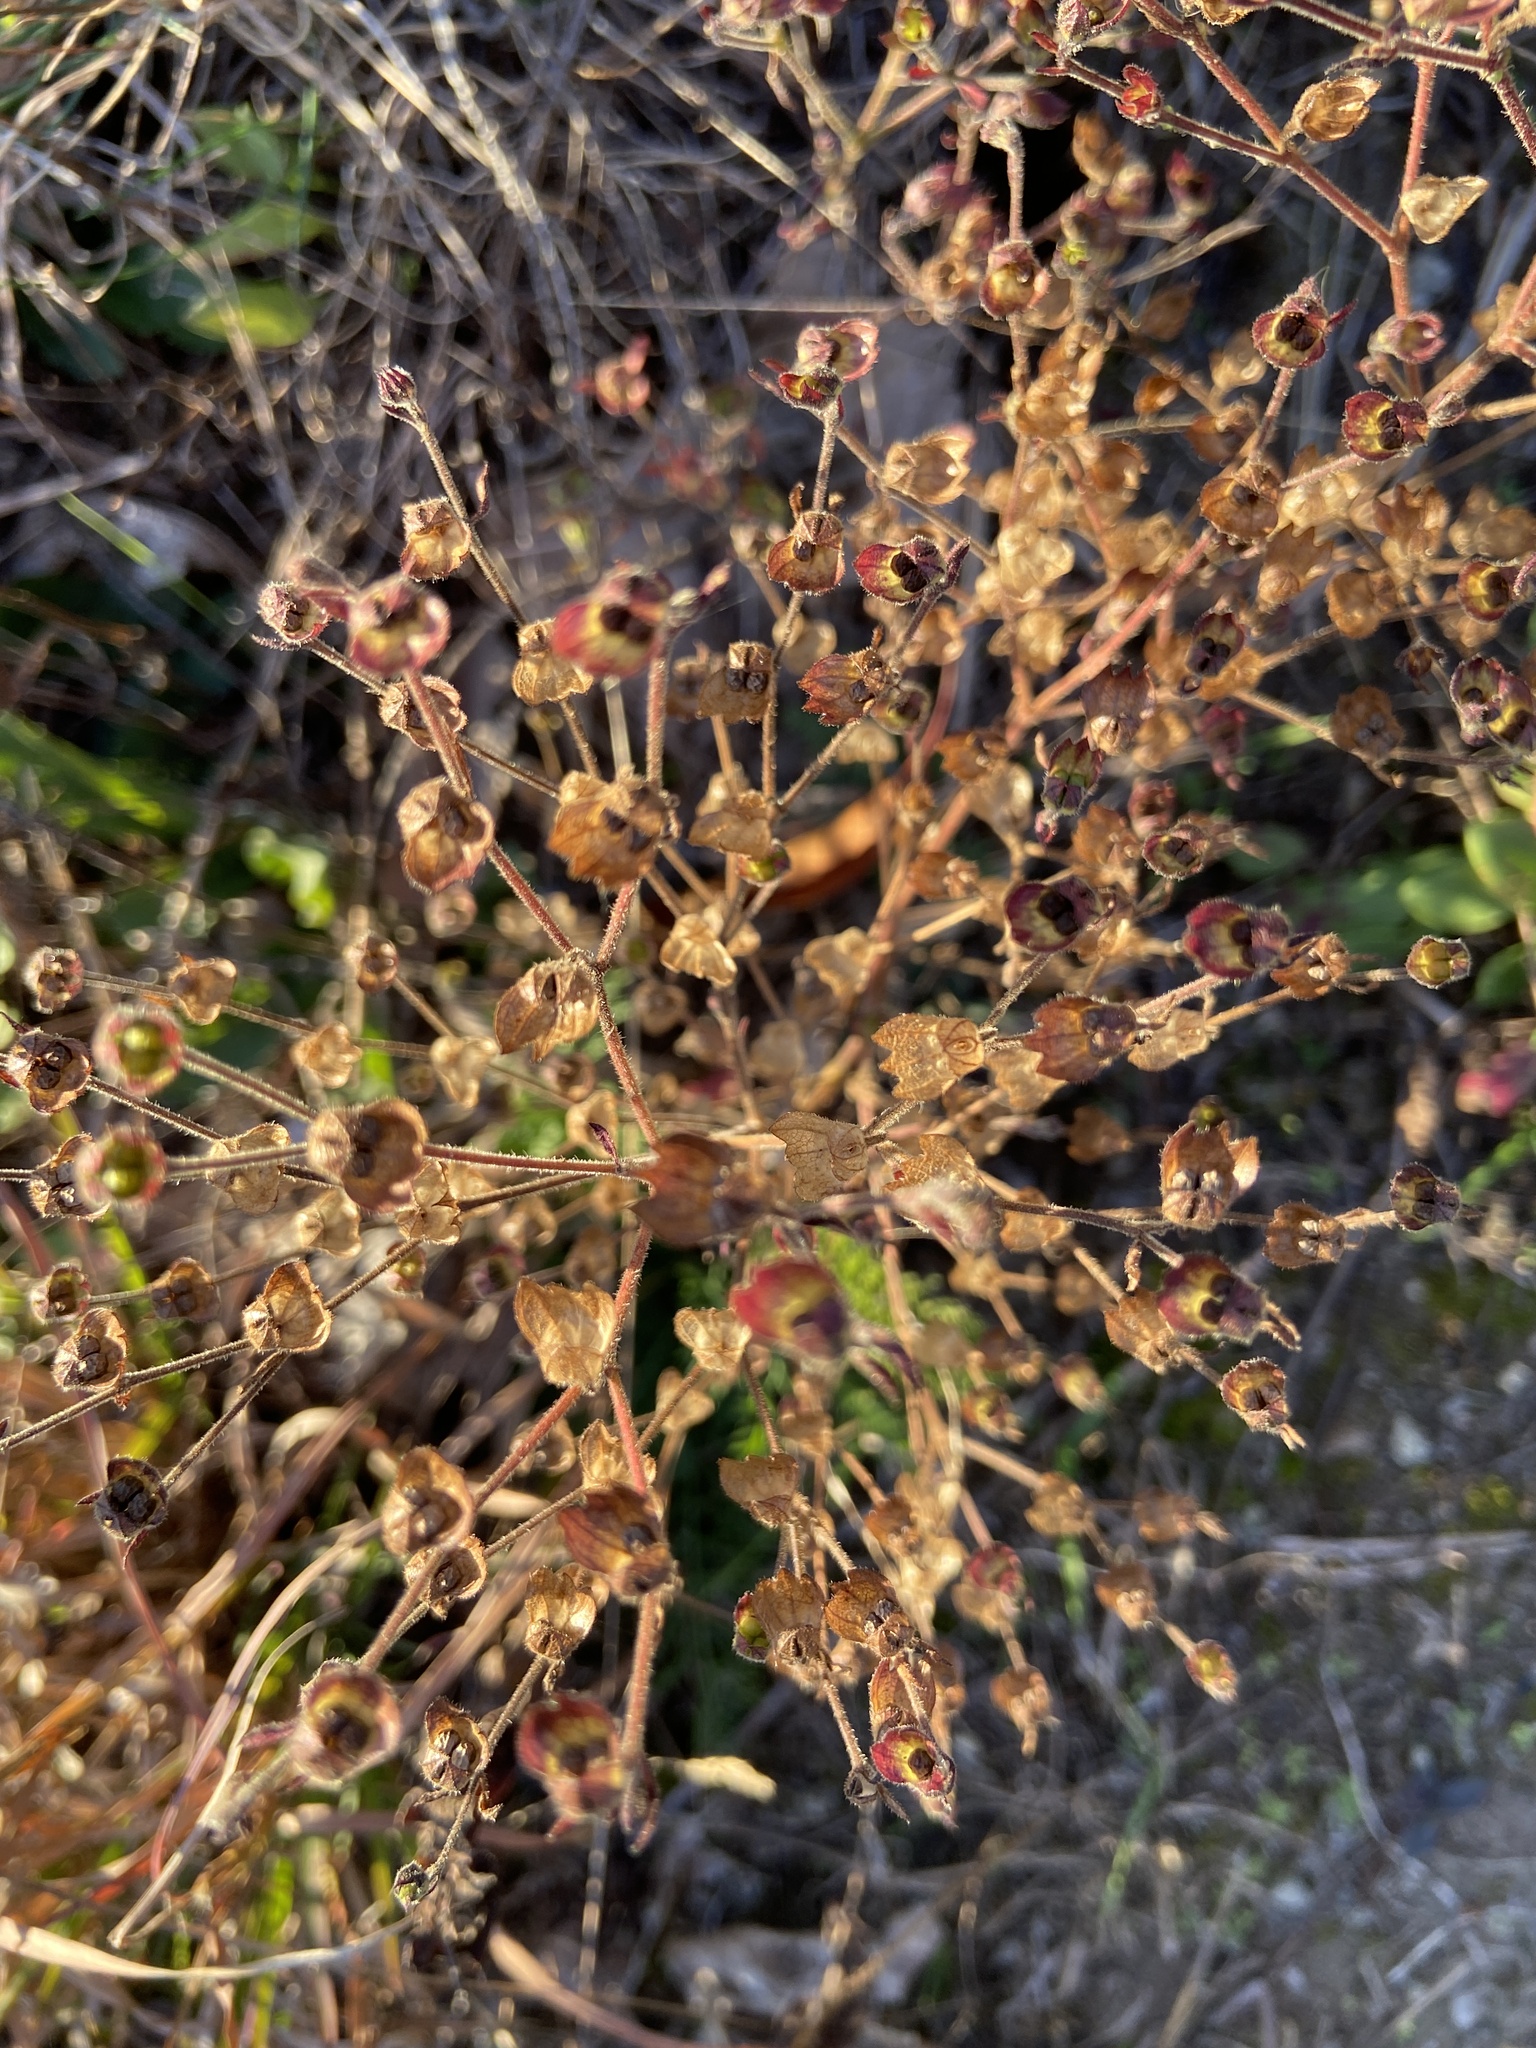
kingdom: Plantae
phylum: Tracheophyta
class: Magnoliopsida
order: Lamiales
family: Lamiaceae
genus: Trichostema
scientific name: Trichostema dichotomum
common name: Bastard pennyroyal
